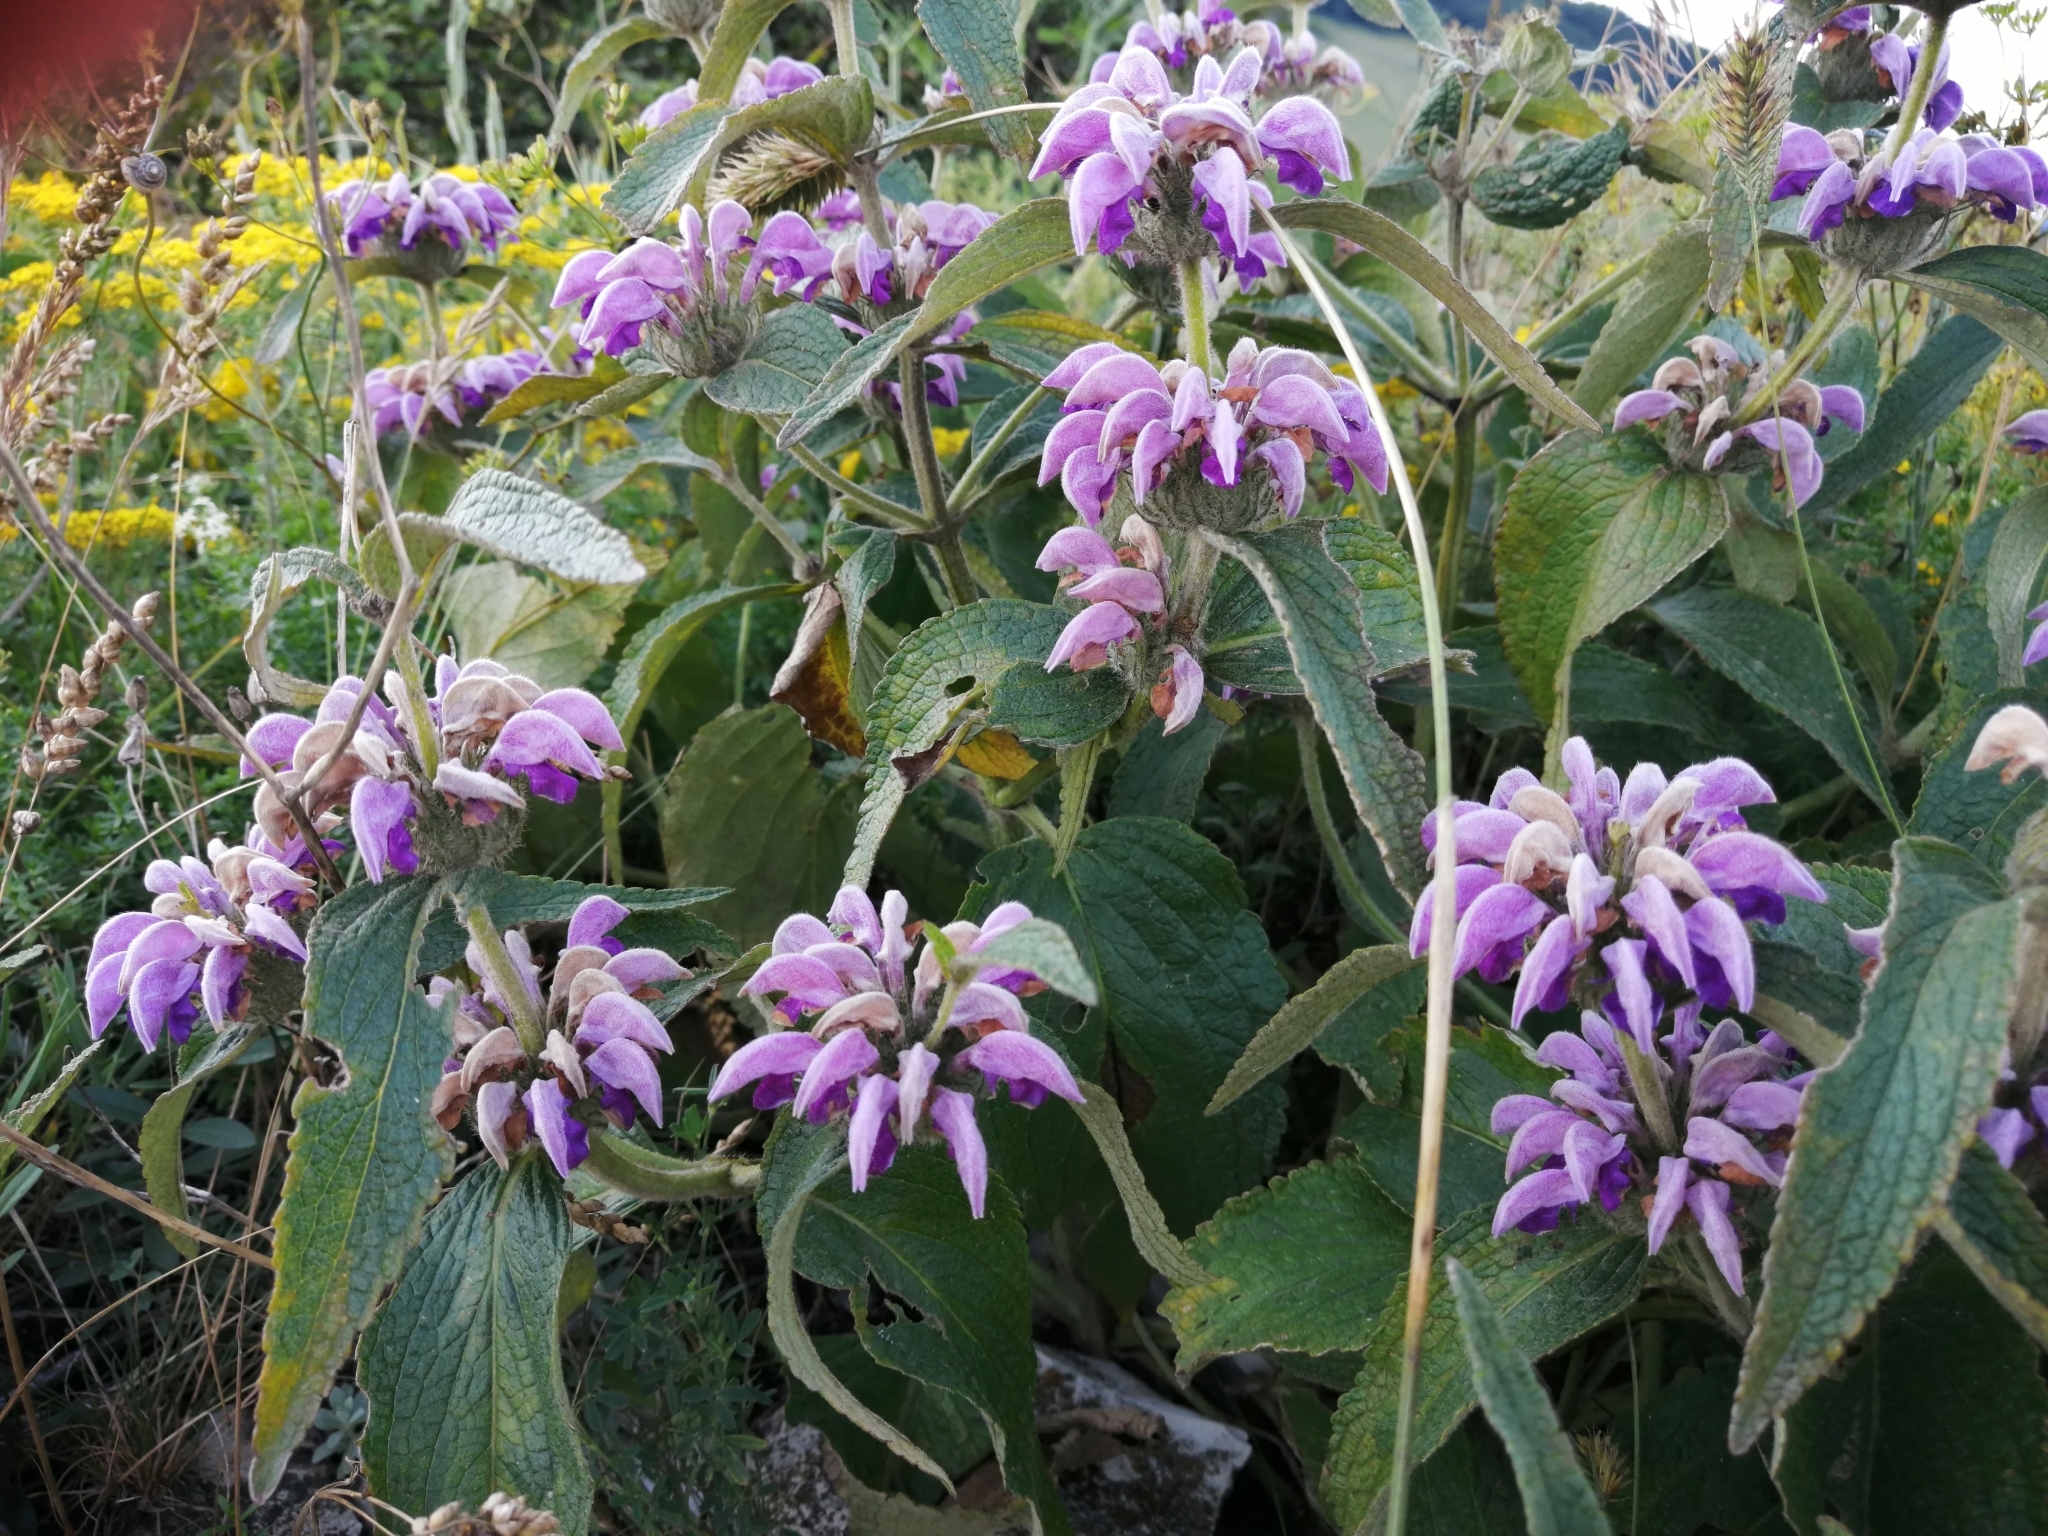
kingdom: Plantae
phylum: Tracheophyta
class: Magnoliopsida
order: Lamiales
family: Lamiaceae
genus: Phlomis
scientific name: Phlomis herba-venti
